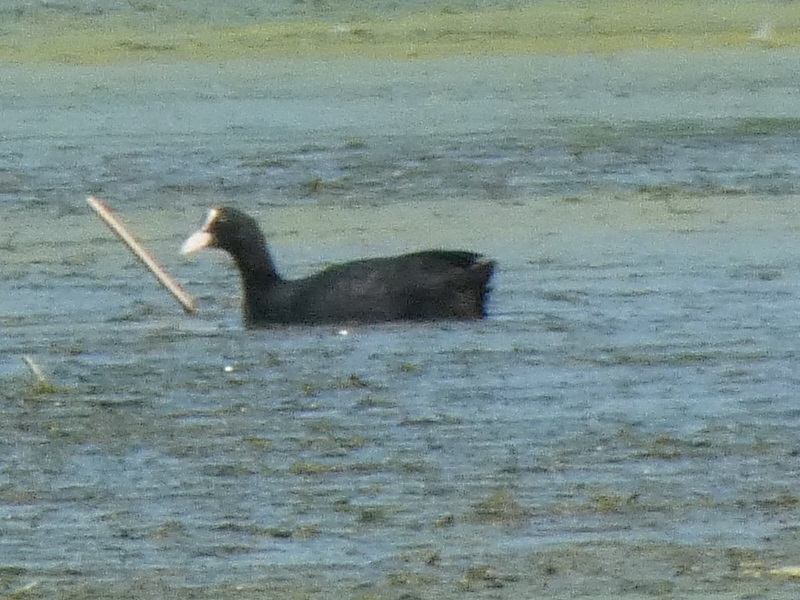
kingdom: Animalia
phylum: Chordata
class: Aves
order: Gruiformes
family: Rallidae
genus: Fulica
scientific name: Fulica atra
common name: Eurasian coot
